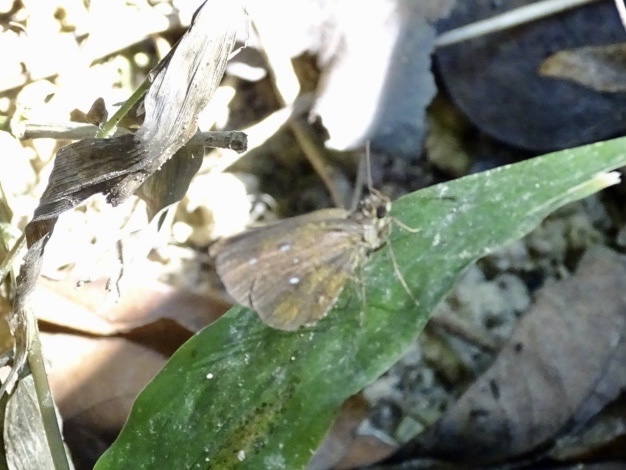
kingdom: Animalia
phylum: Arthropoda
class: Insecta
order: Lepidoptera
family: Hesperiidae
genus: Iambrix
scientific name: Iambrix salsala
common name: Chestnut bob
